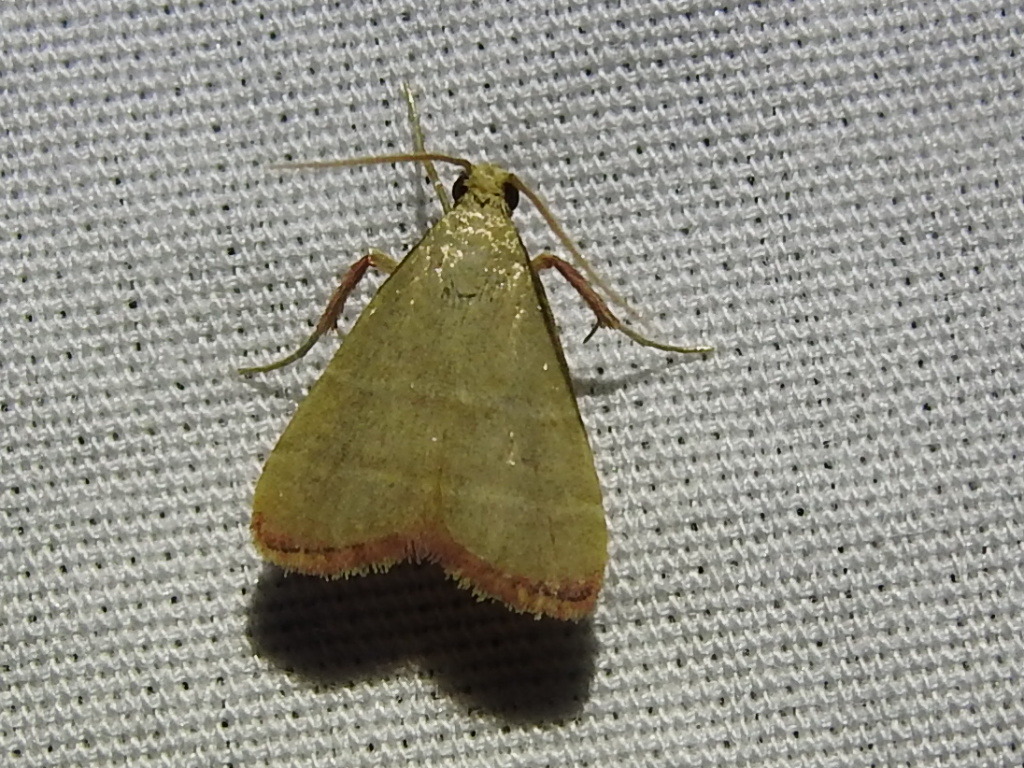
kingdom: Animalia
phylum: Arthropoda
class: Insecta
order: Lepidoptera
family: Pyralidae
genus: Arta
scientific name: Arta olivalis
